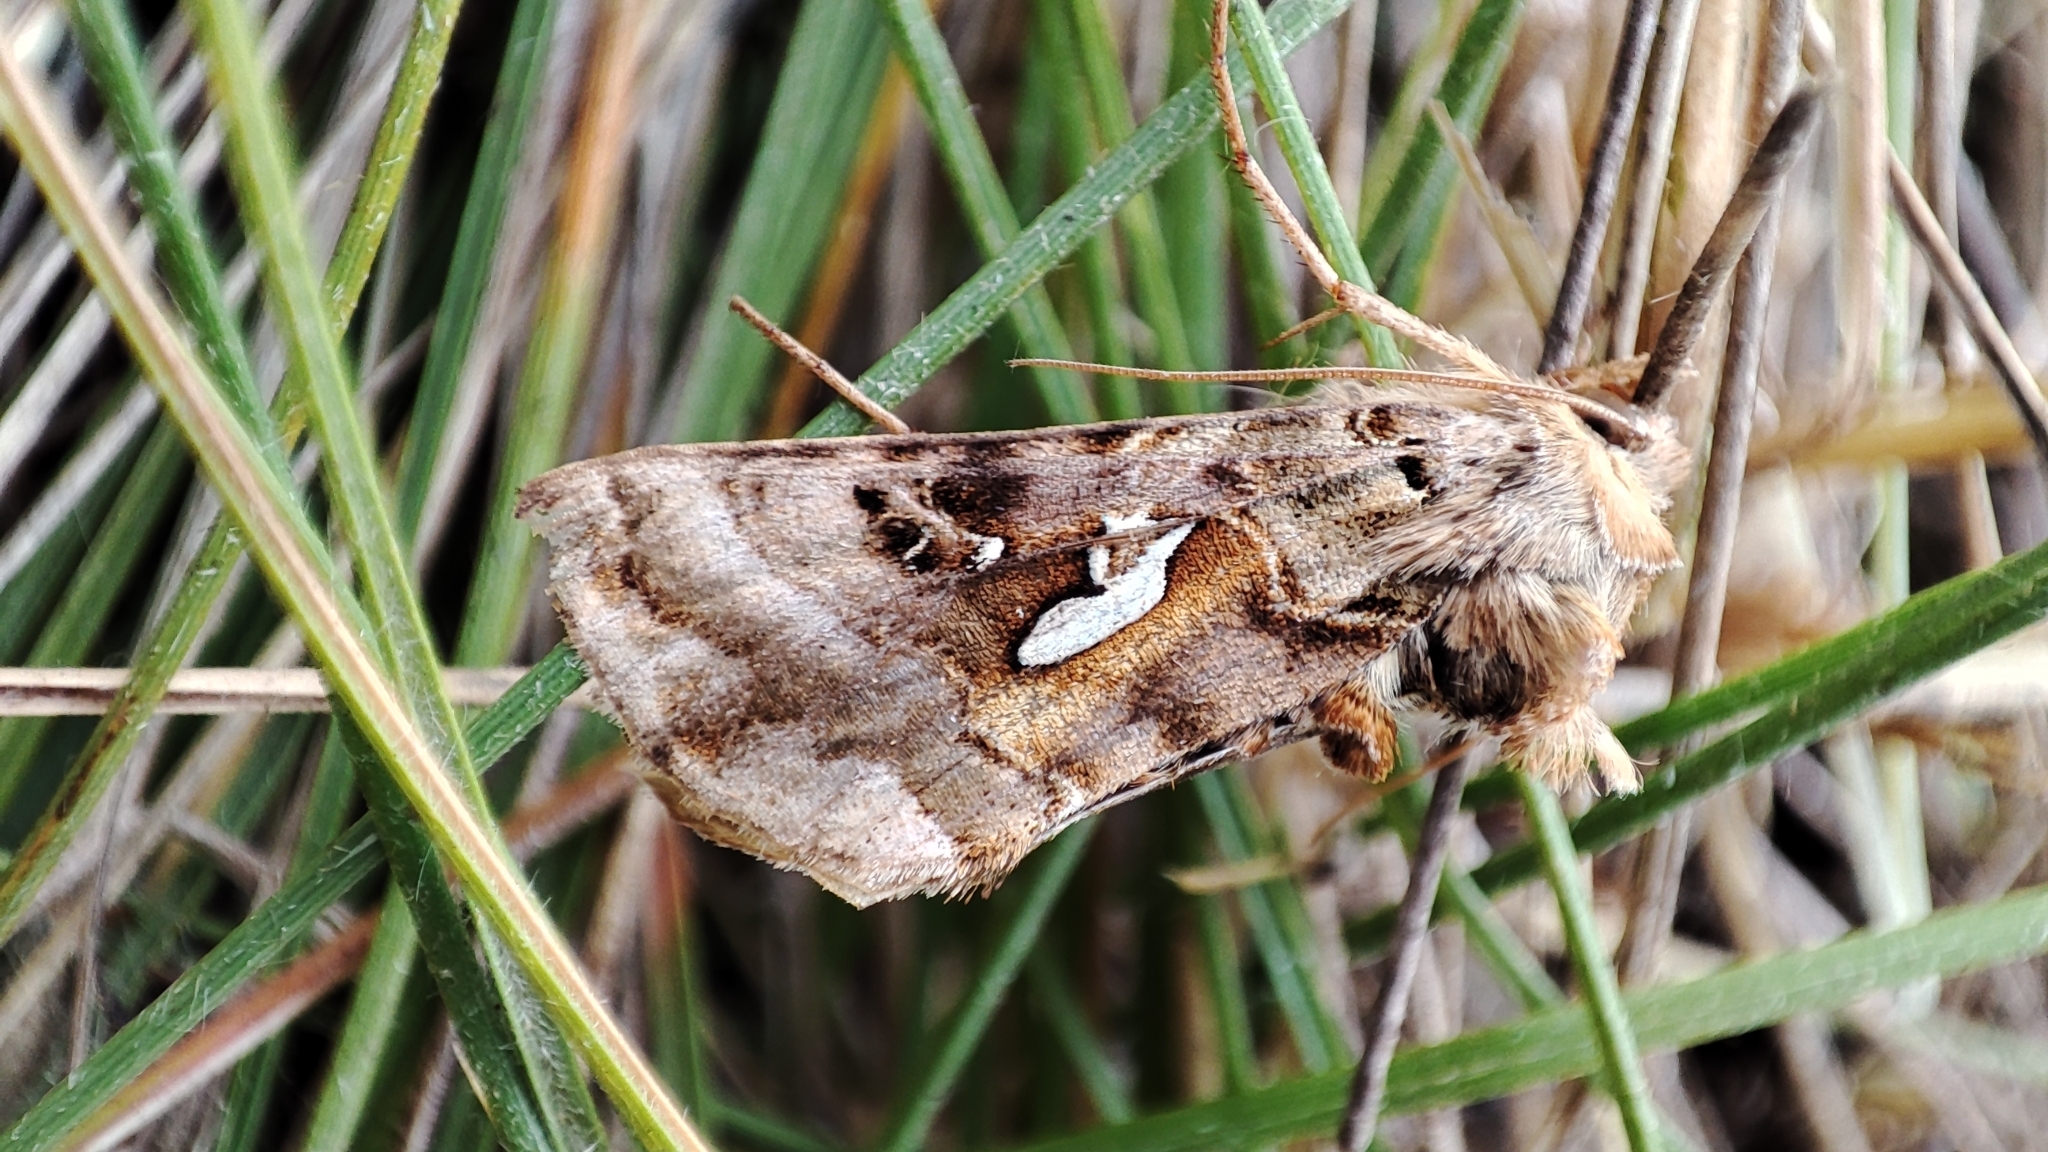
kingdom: Animalia
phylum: Arthropoda
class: Insecta
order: Lepidoptera
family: Noctuidae
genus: Autographa
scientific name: Autographa macrogamma
